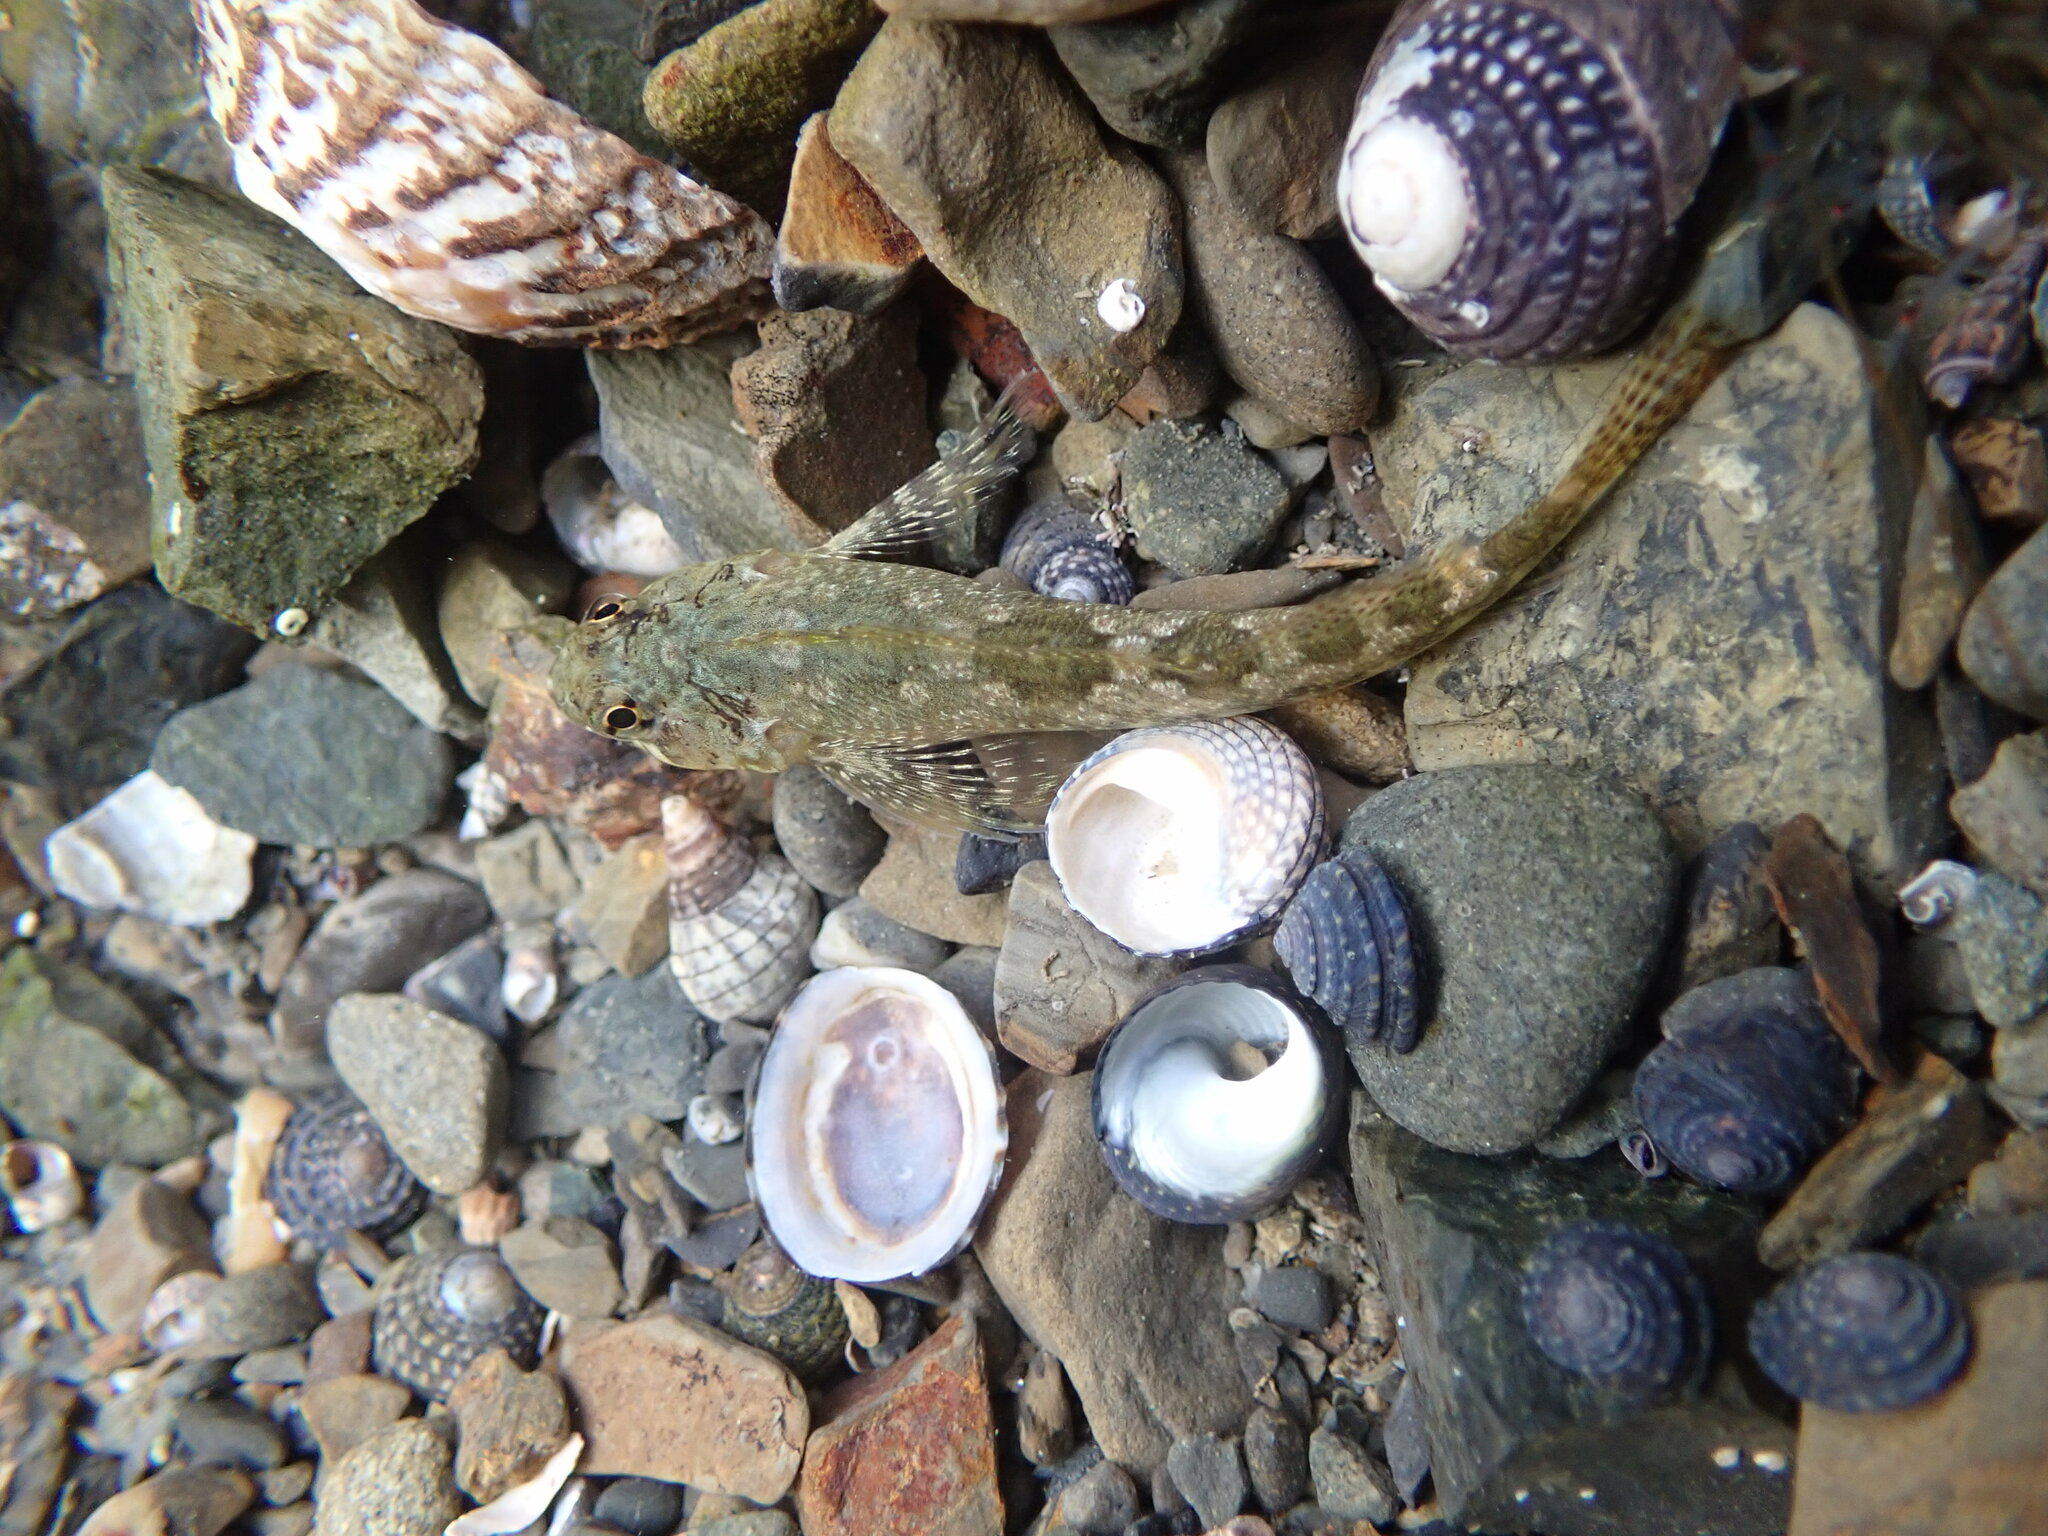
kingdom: Animalia
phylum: Chordata
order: Perciformes
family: Tripterygiidae
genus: Bellapiscis
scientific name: Bellapiscis medius
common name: Twister
